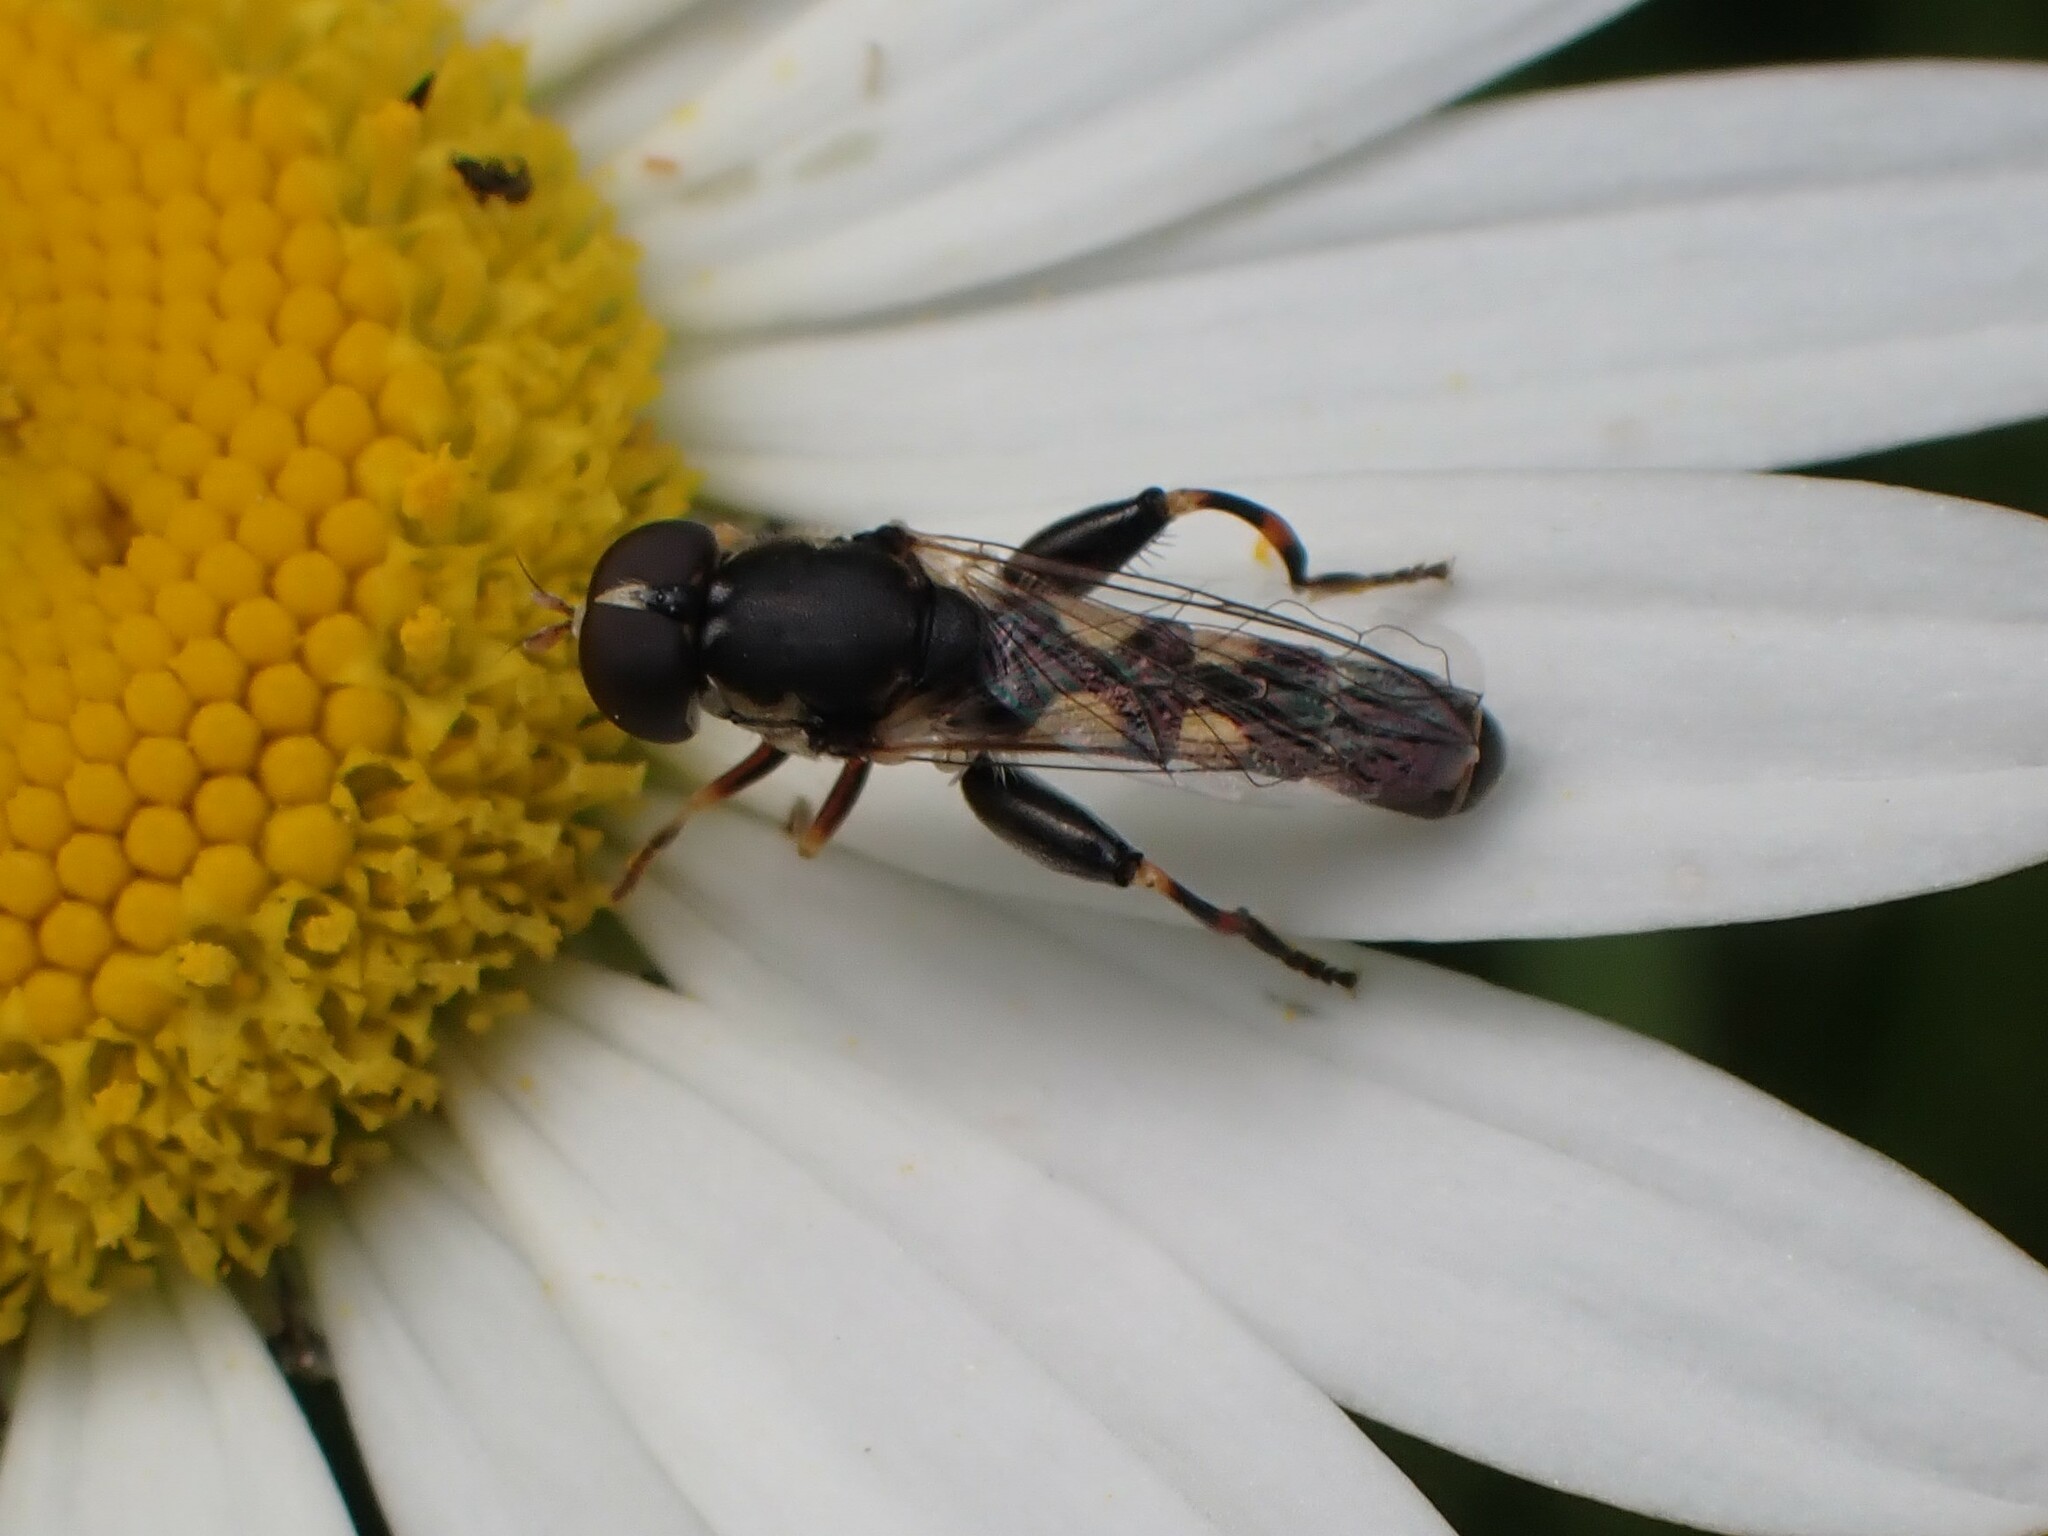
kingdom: Animalia
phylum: Arthropoda
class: Insecta
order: Diptera
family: Syrphidae
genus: Syritta
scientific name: Syritta pipiens
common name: Hover fly
